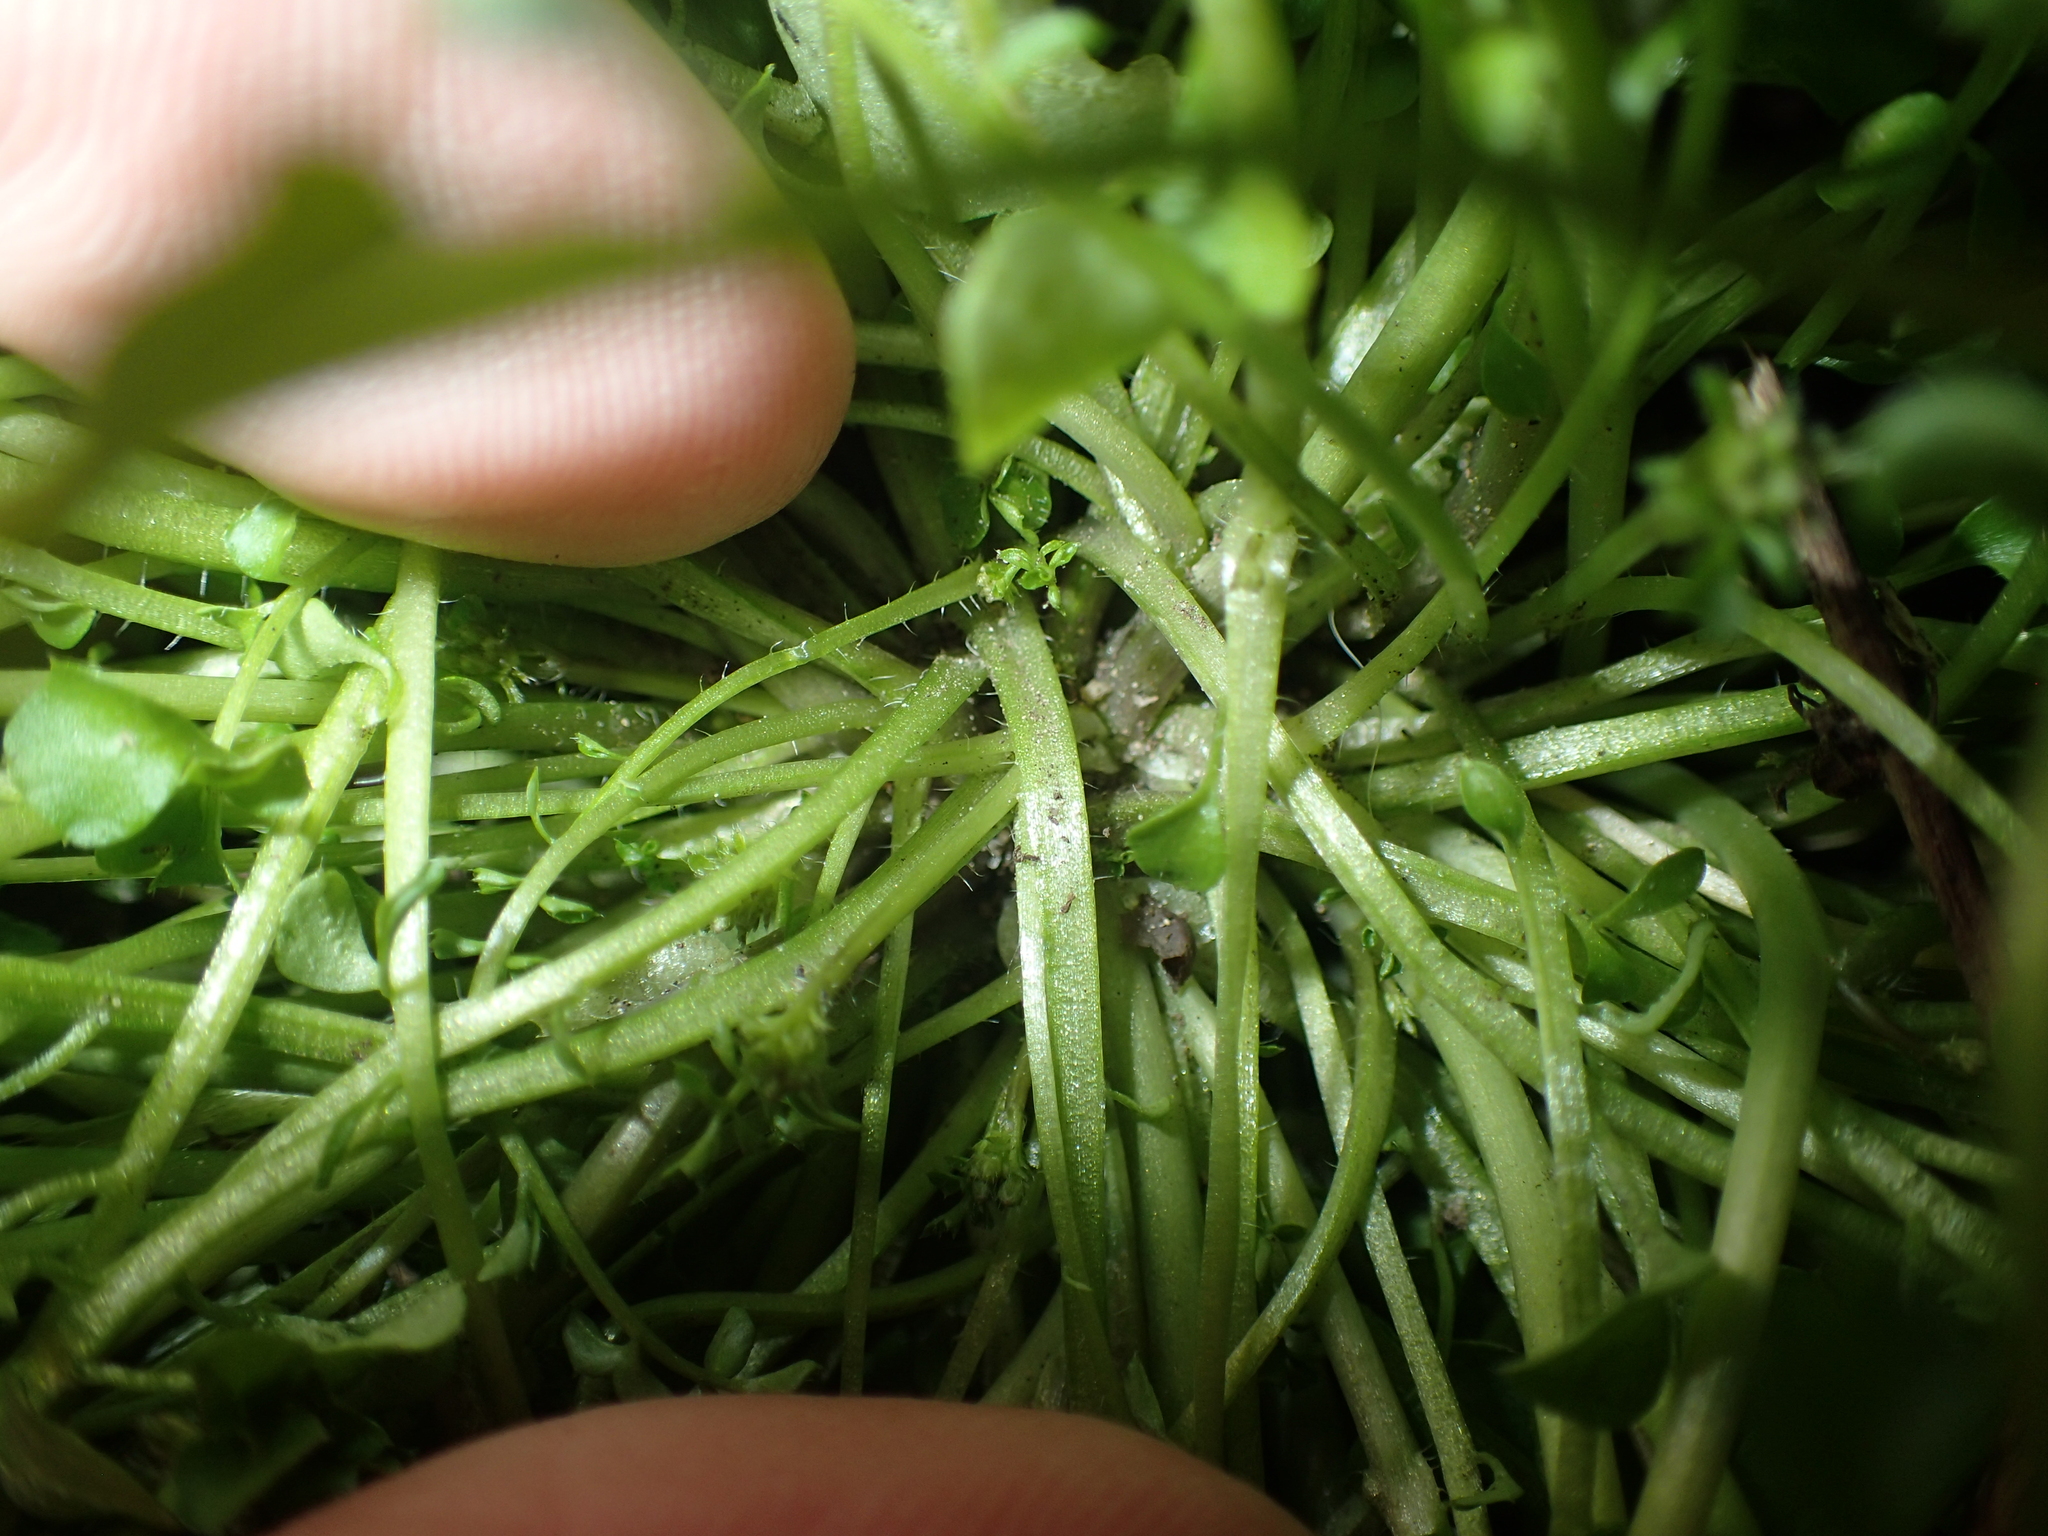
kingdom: Plantae
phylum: Tracheophyta
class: Magnoliopsida
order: Brassicales
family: Brassicaceae
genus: Cardamine
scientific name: Cardamine hirsuta
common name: Hairy bittercress
